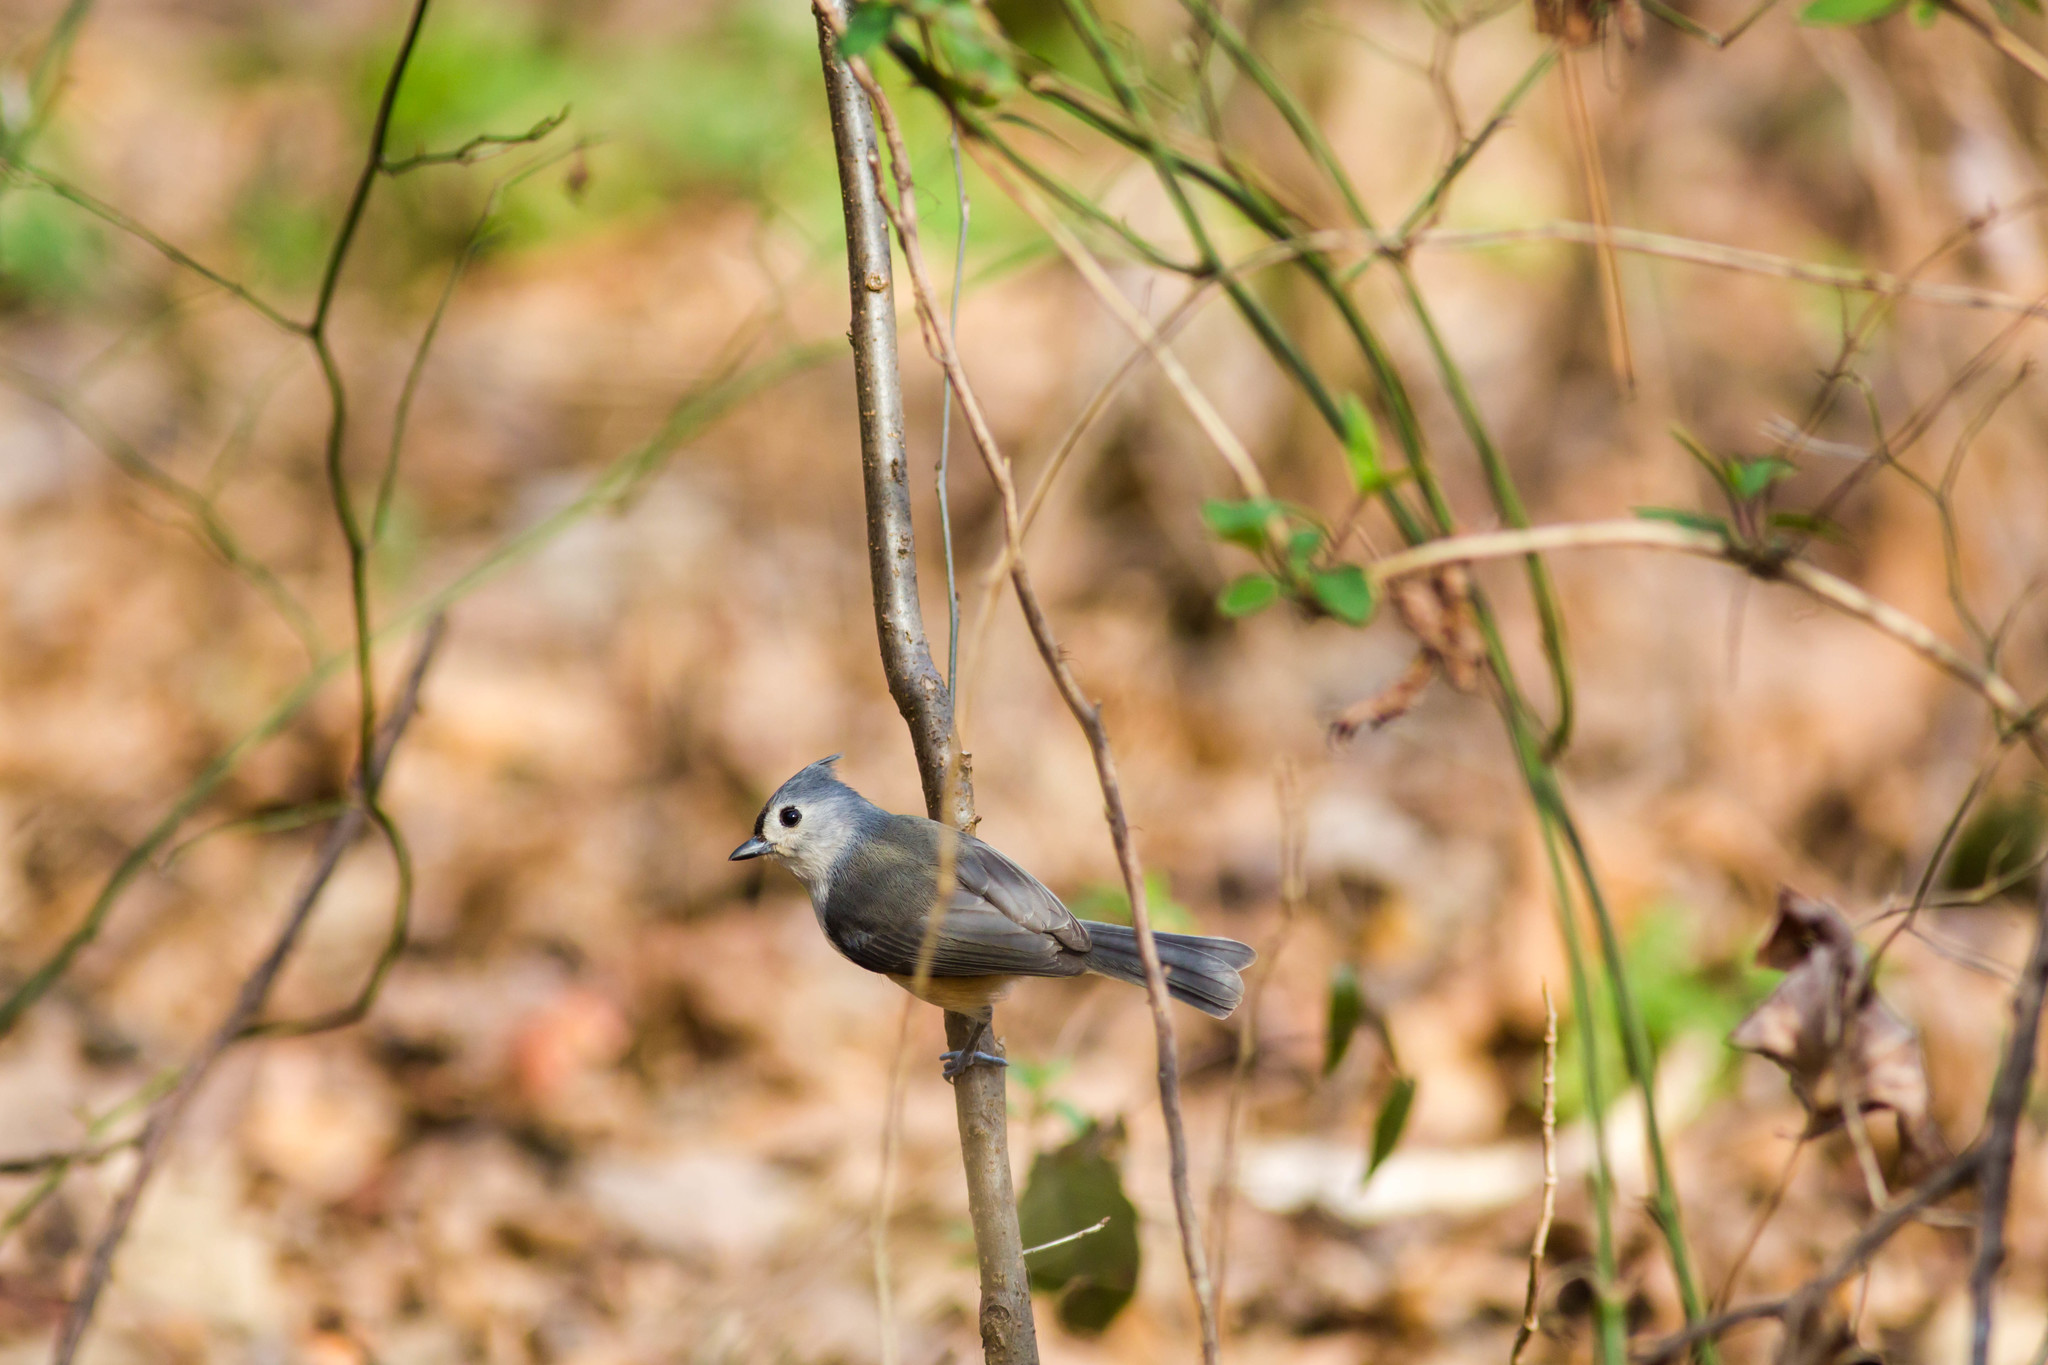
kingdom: Animalia
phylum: Chordata
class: Aves
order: Passeriformes
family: Paridae
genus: Baeolophus
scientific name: Baeolophus bicolor
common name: Tufted titmouse
